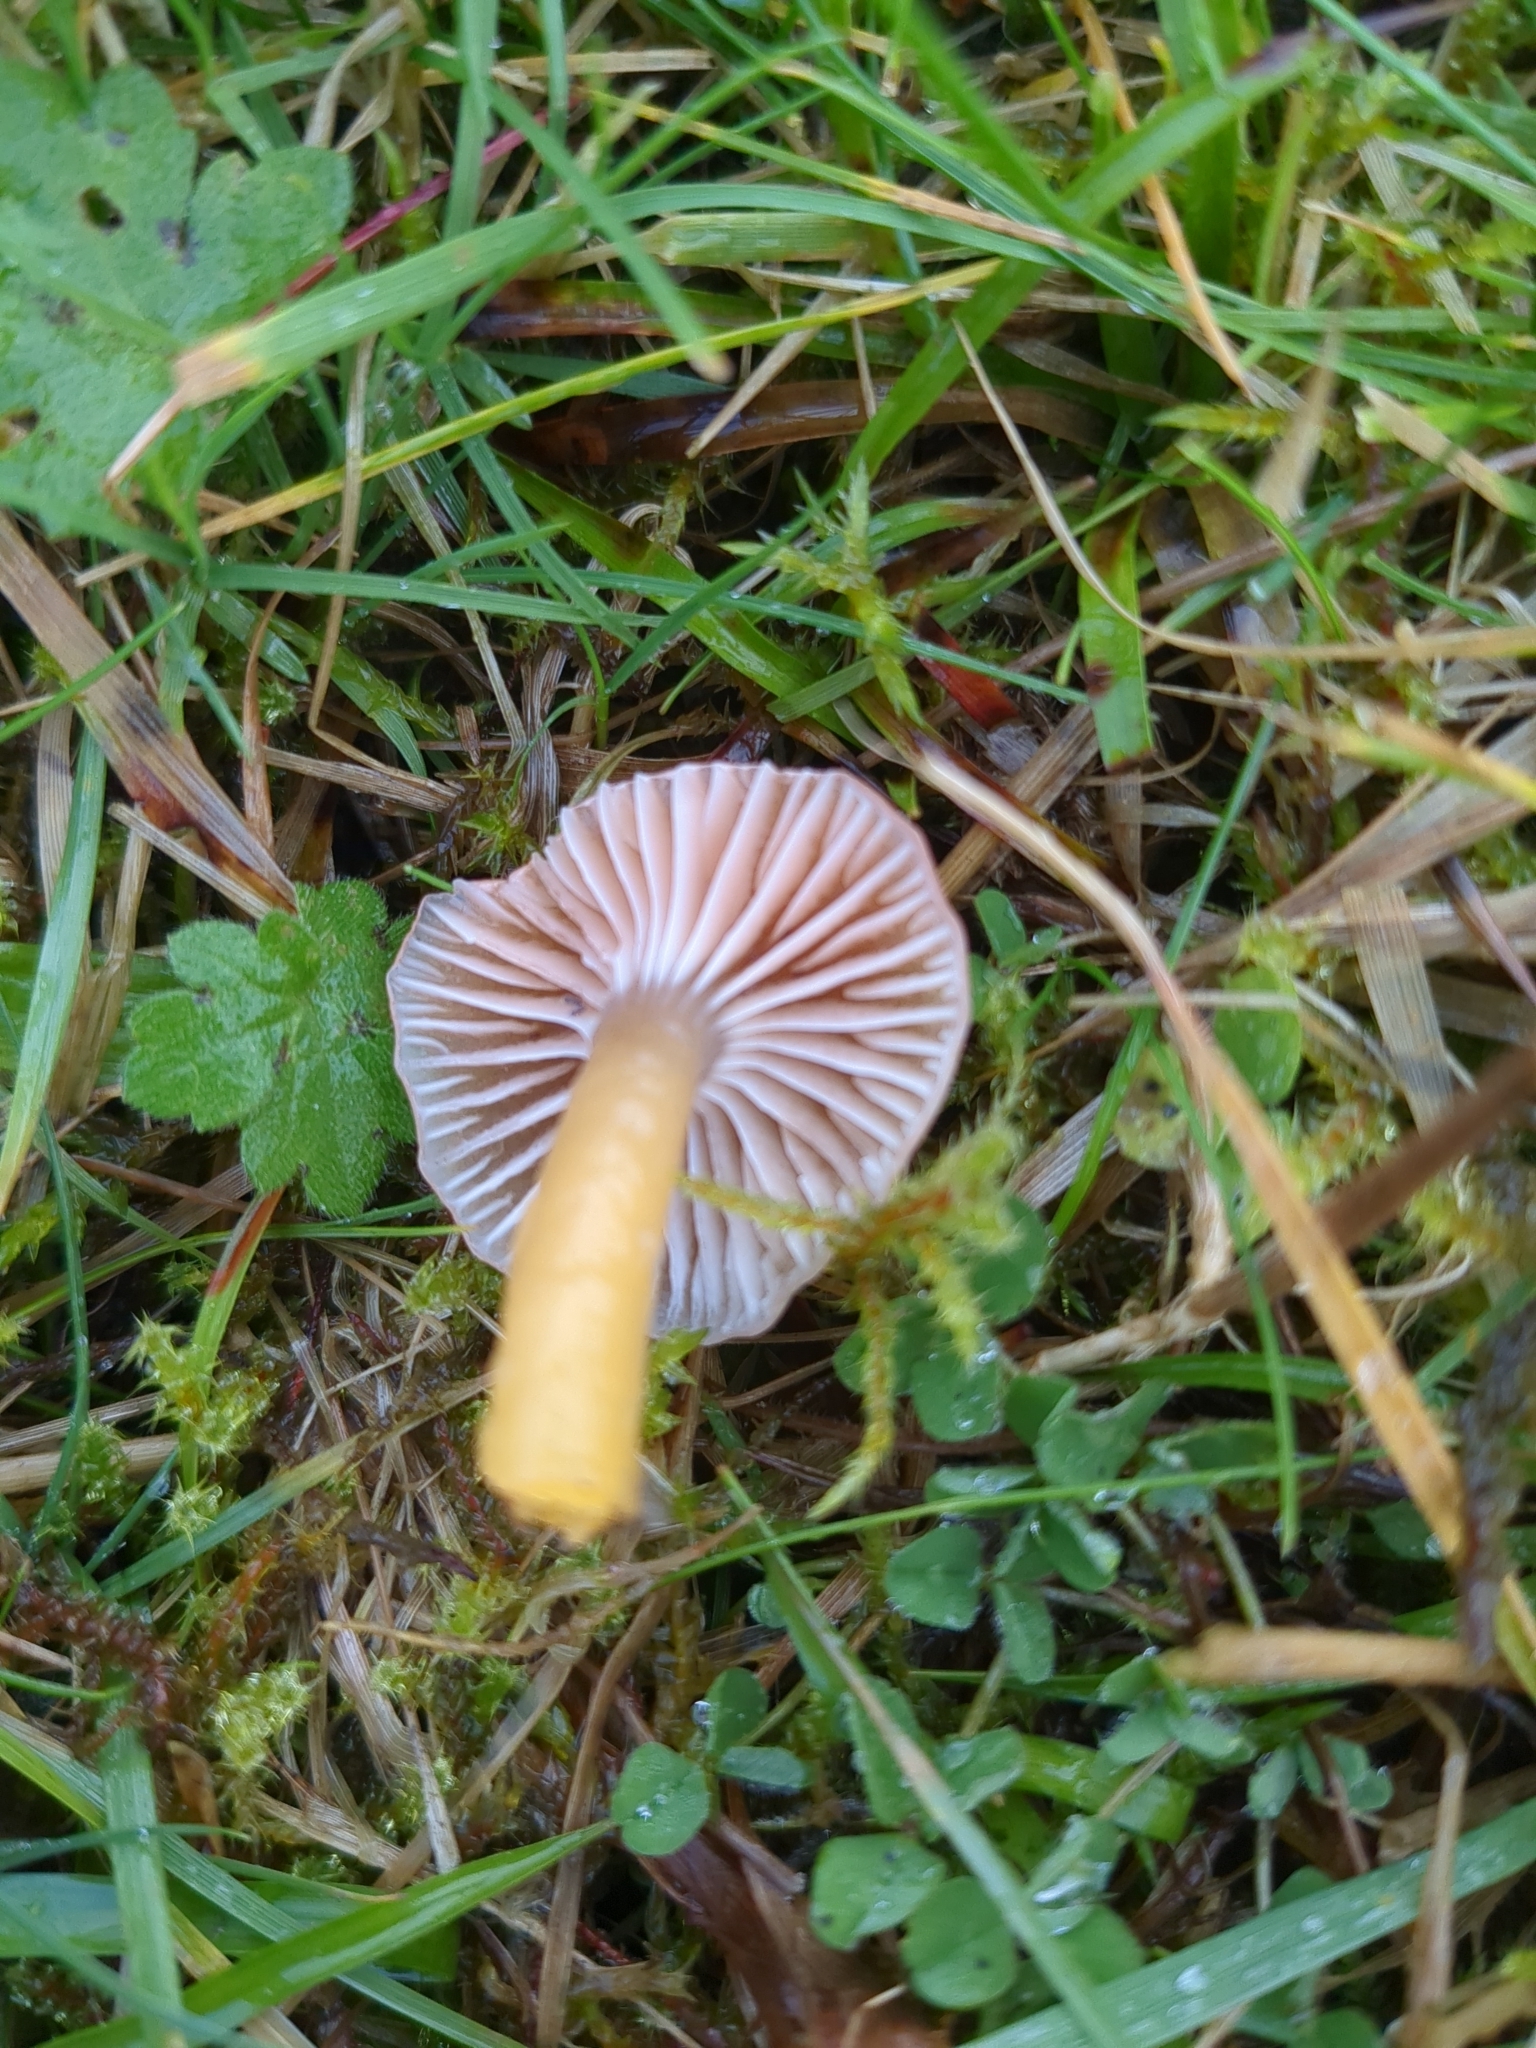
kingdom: Fungi
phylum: Basidiomycota
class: Agaricomycetes
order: Agaricales
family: Hygrophoraceae
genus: Gliophorus
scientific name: Gliophorus laetus
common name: Heath waxcap
